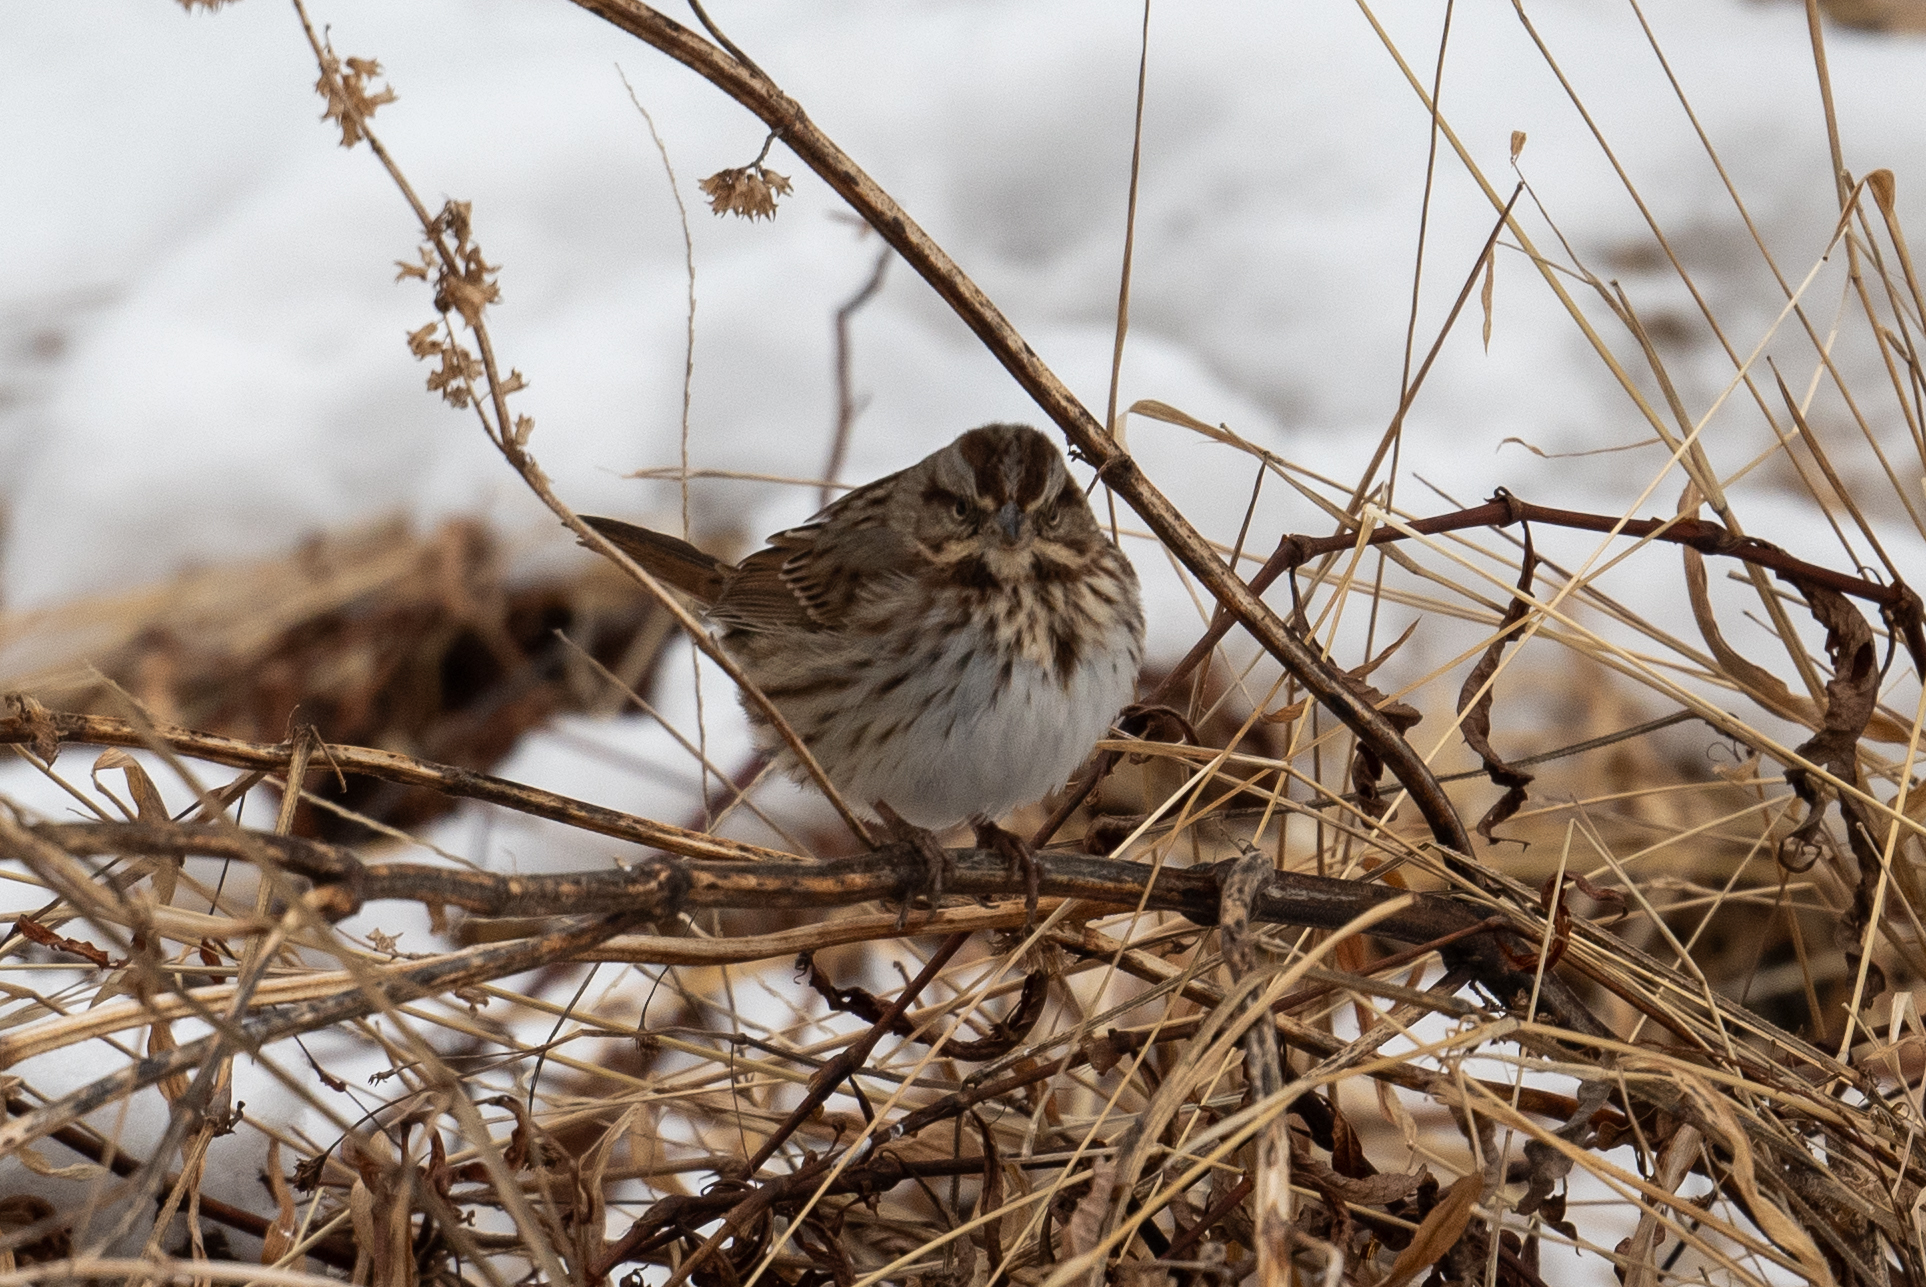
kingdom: Animalia
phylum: Chordata
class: Aves
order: Passeriformes
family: Passerellidae
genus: Melospiza
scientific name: Melospiza melodia
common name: Song sparrow
